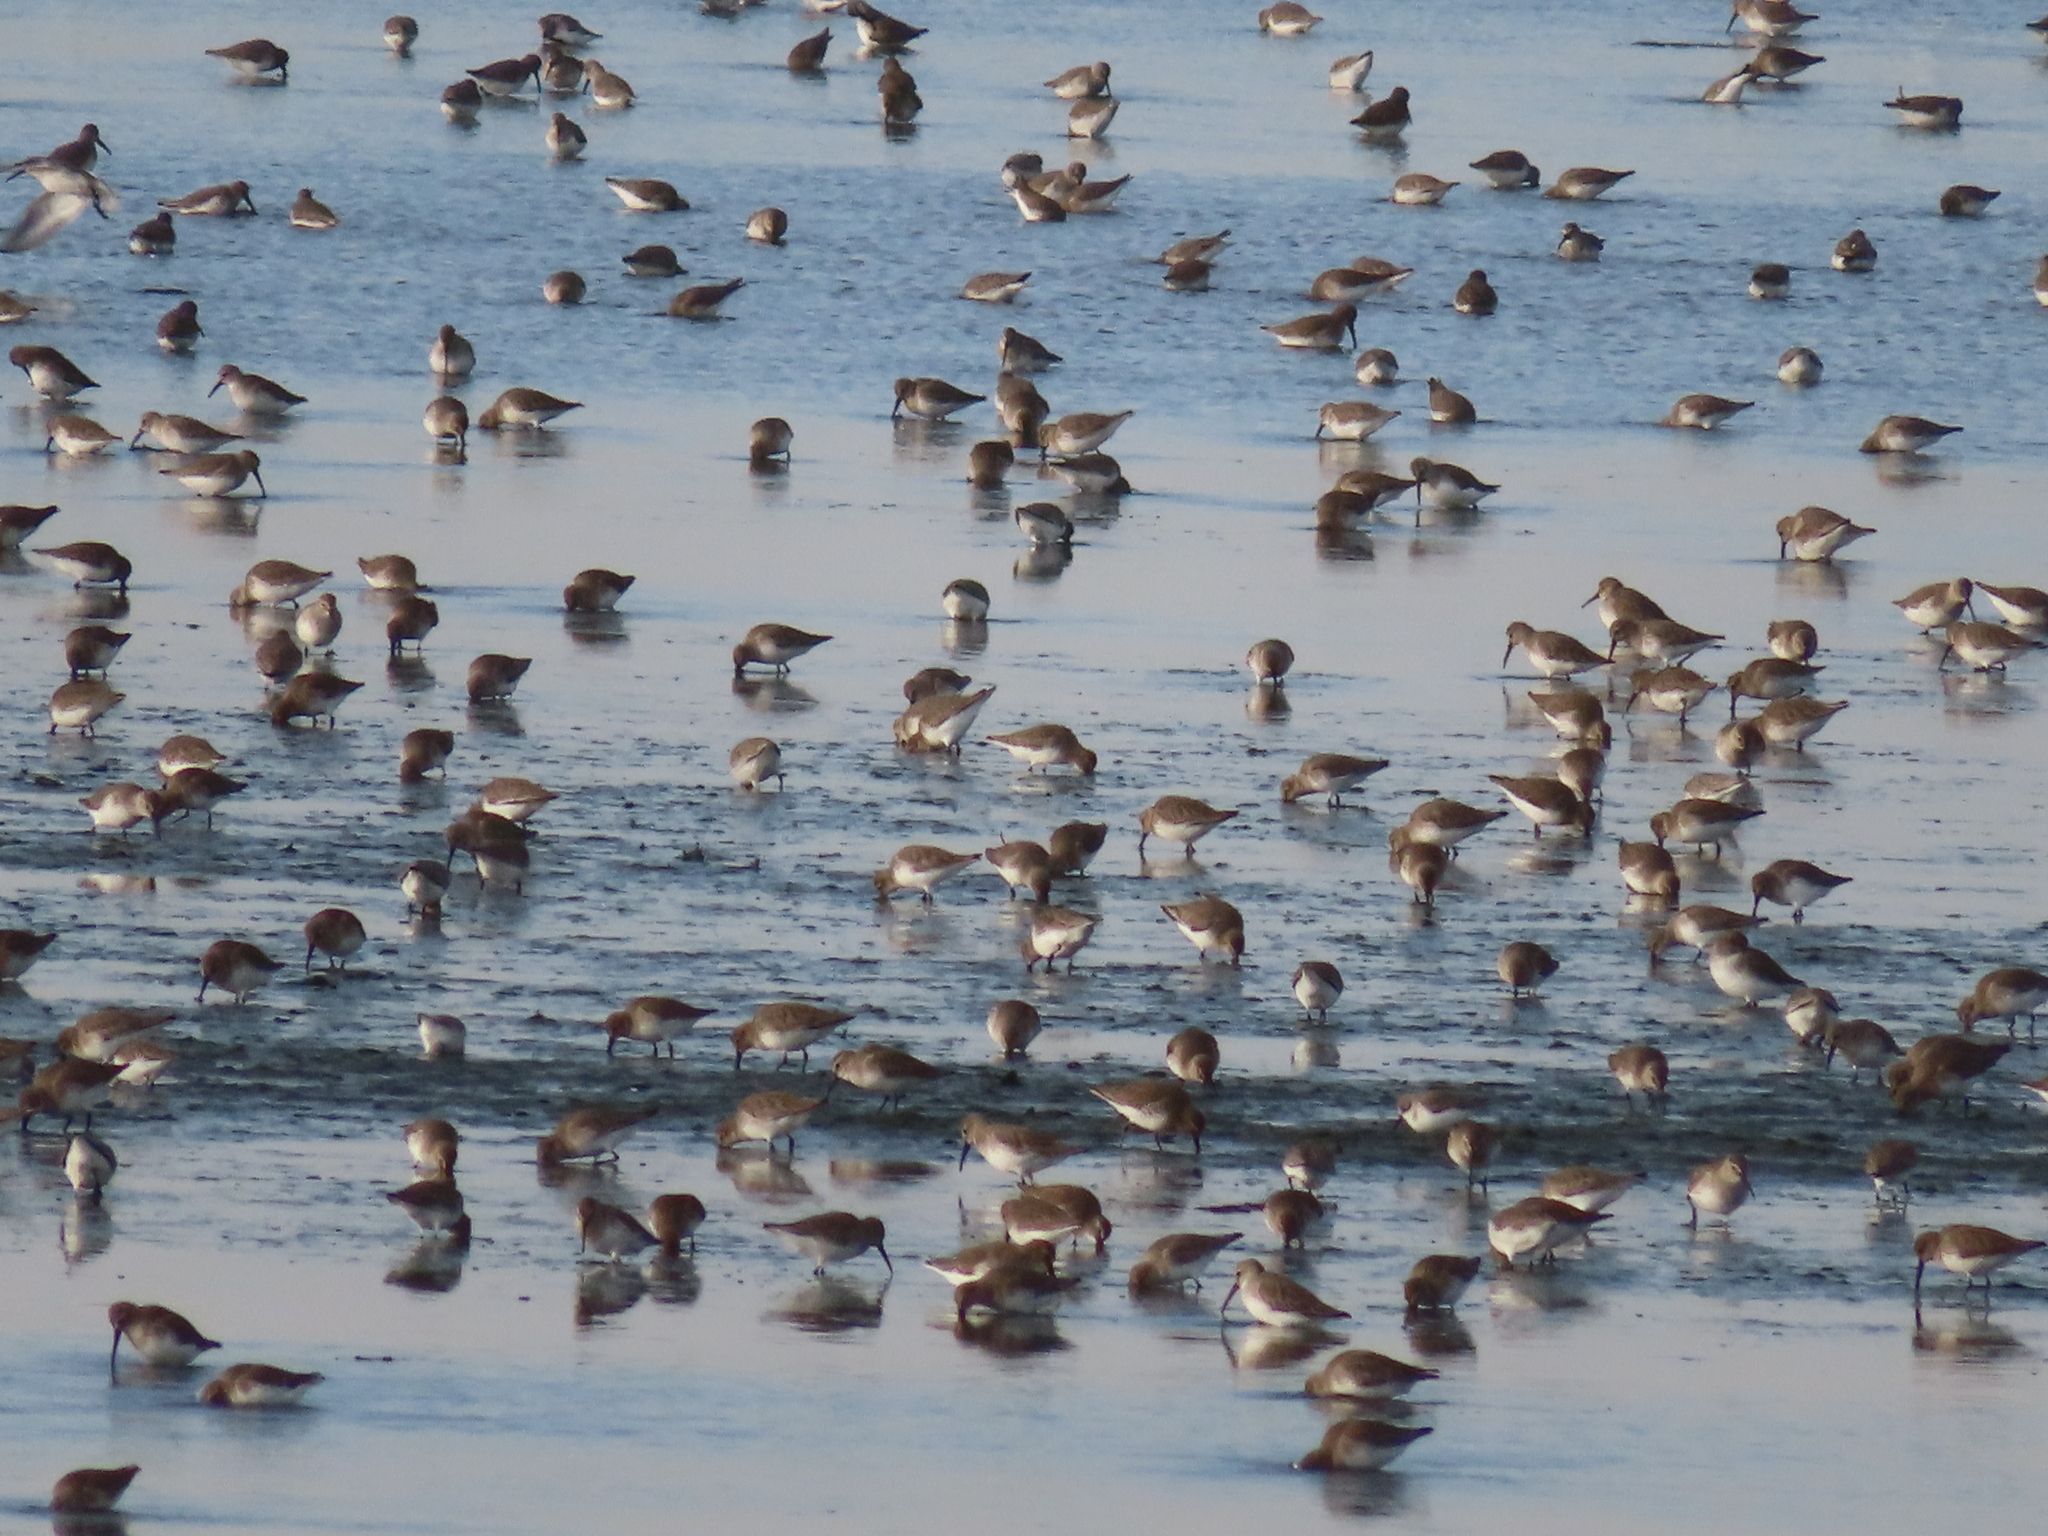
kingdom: Animalia
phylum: Chordata
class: Aves
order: Charadriiformes
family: Scolopacidae
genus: Calidris
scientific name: Calidris alpina
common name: Dunlin
